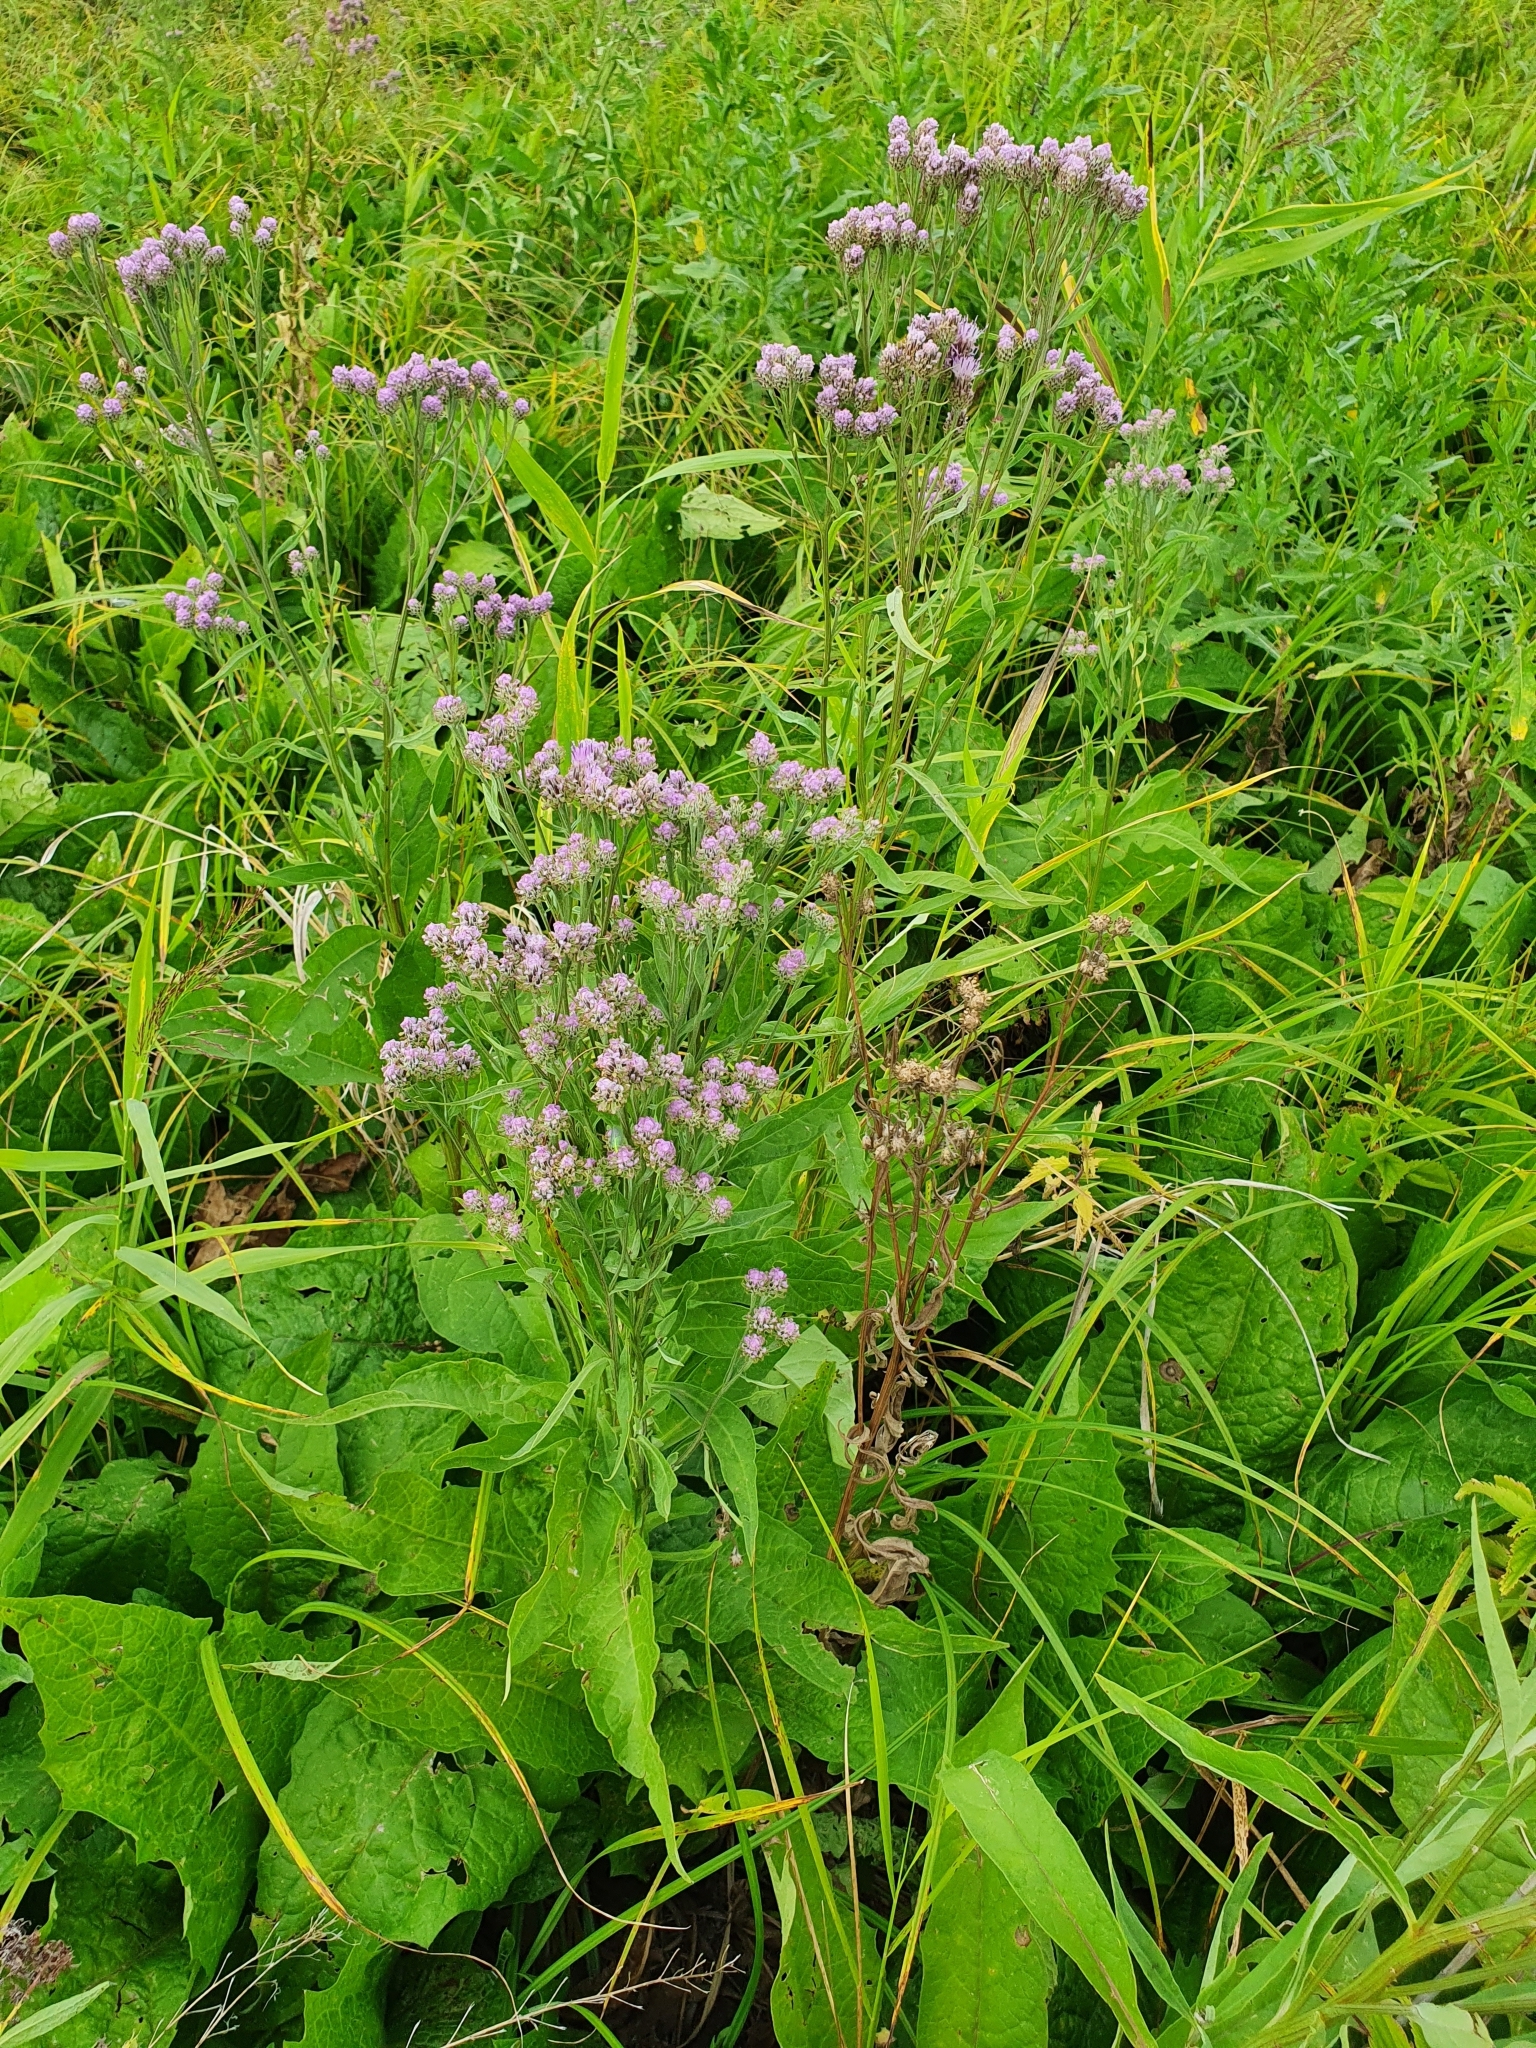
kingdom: Plantae
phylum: Tracheophyta
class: Magnoliopsida
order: Asterales
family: Asteraceae
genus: Saussurea
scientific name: Saussurea amara
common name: Alberta sawwort
